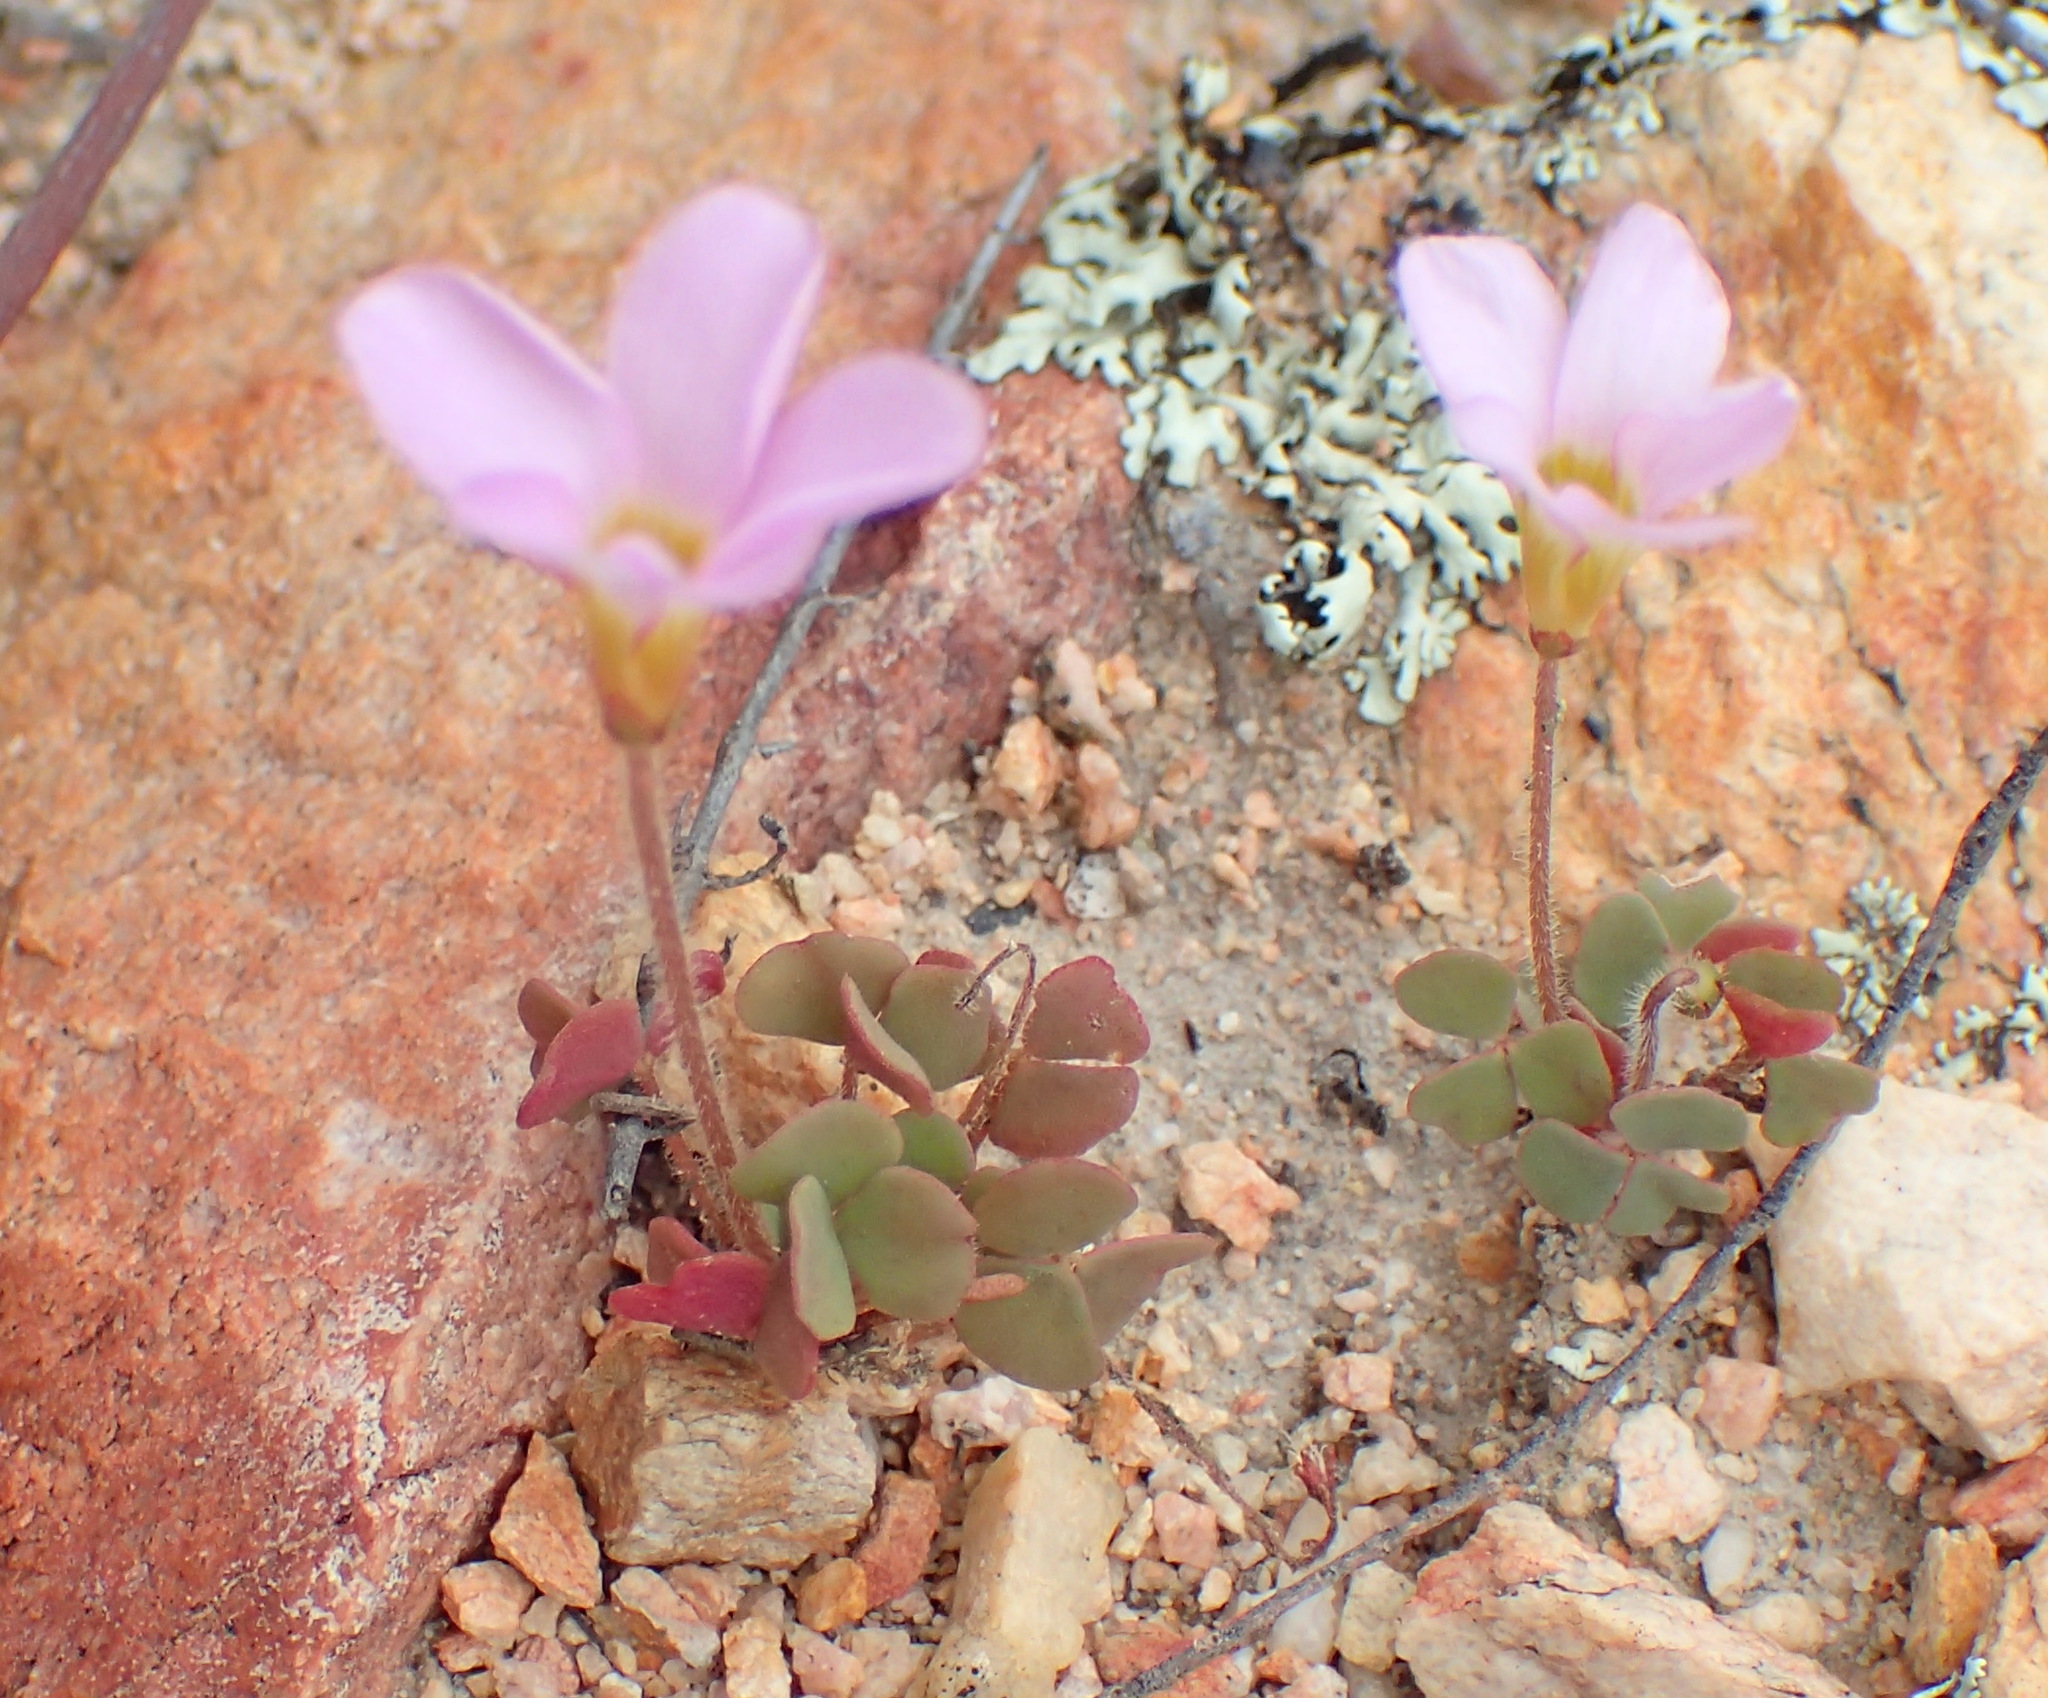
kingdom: Plantae
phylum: Tracheophyta
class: Magnoliopsida
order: Oxalidales
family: Oxalidaceae
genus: Oxalis
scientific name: Oxalis punctata
